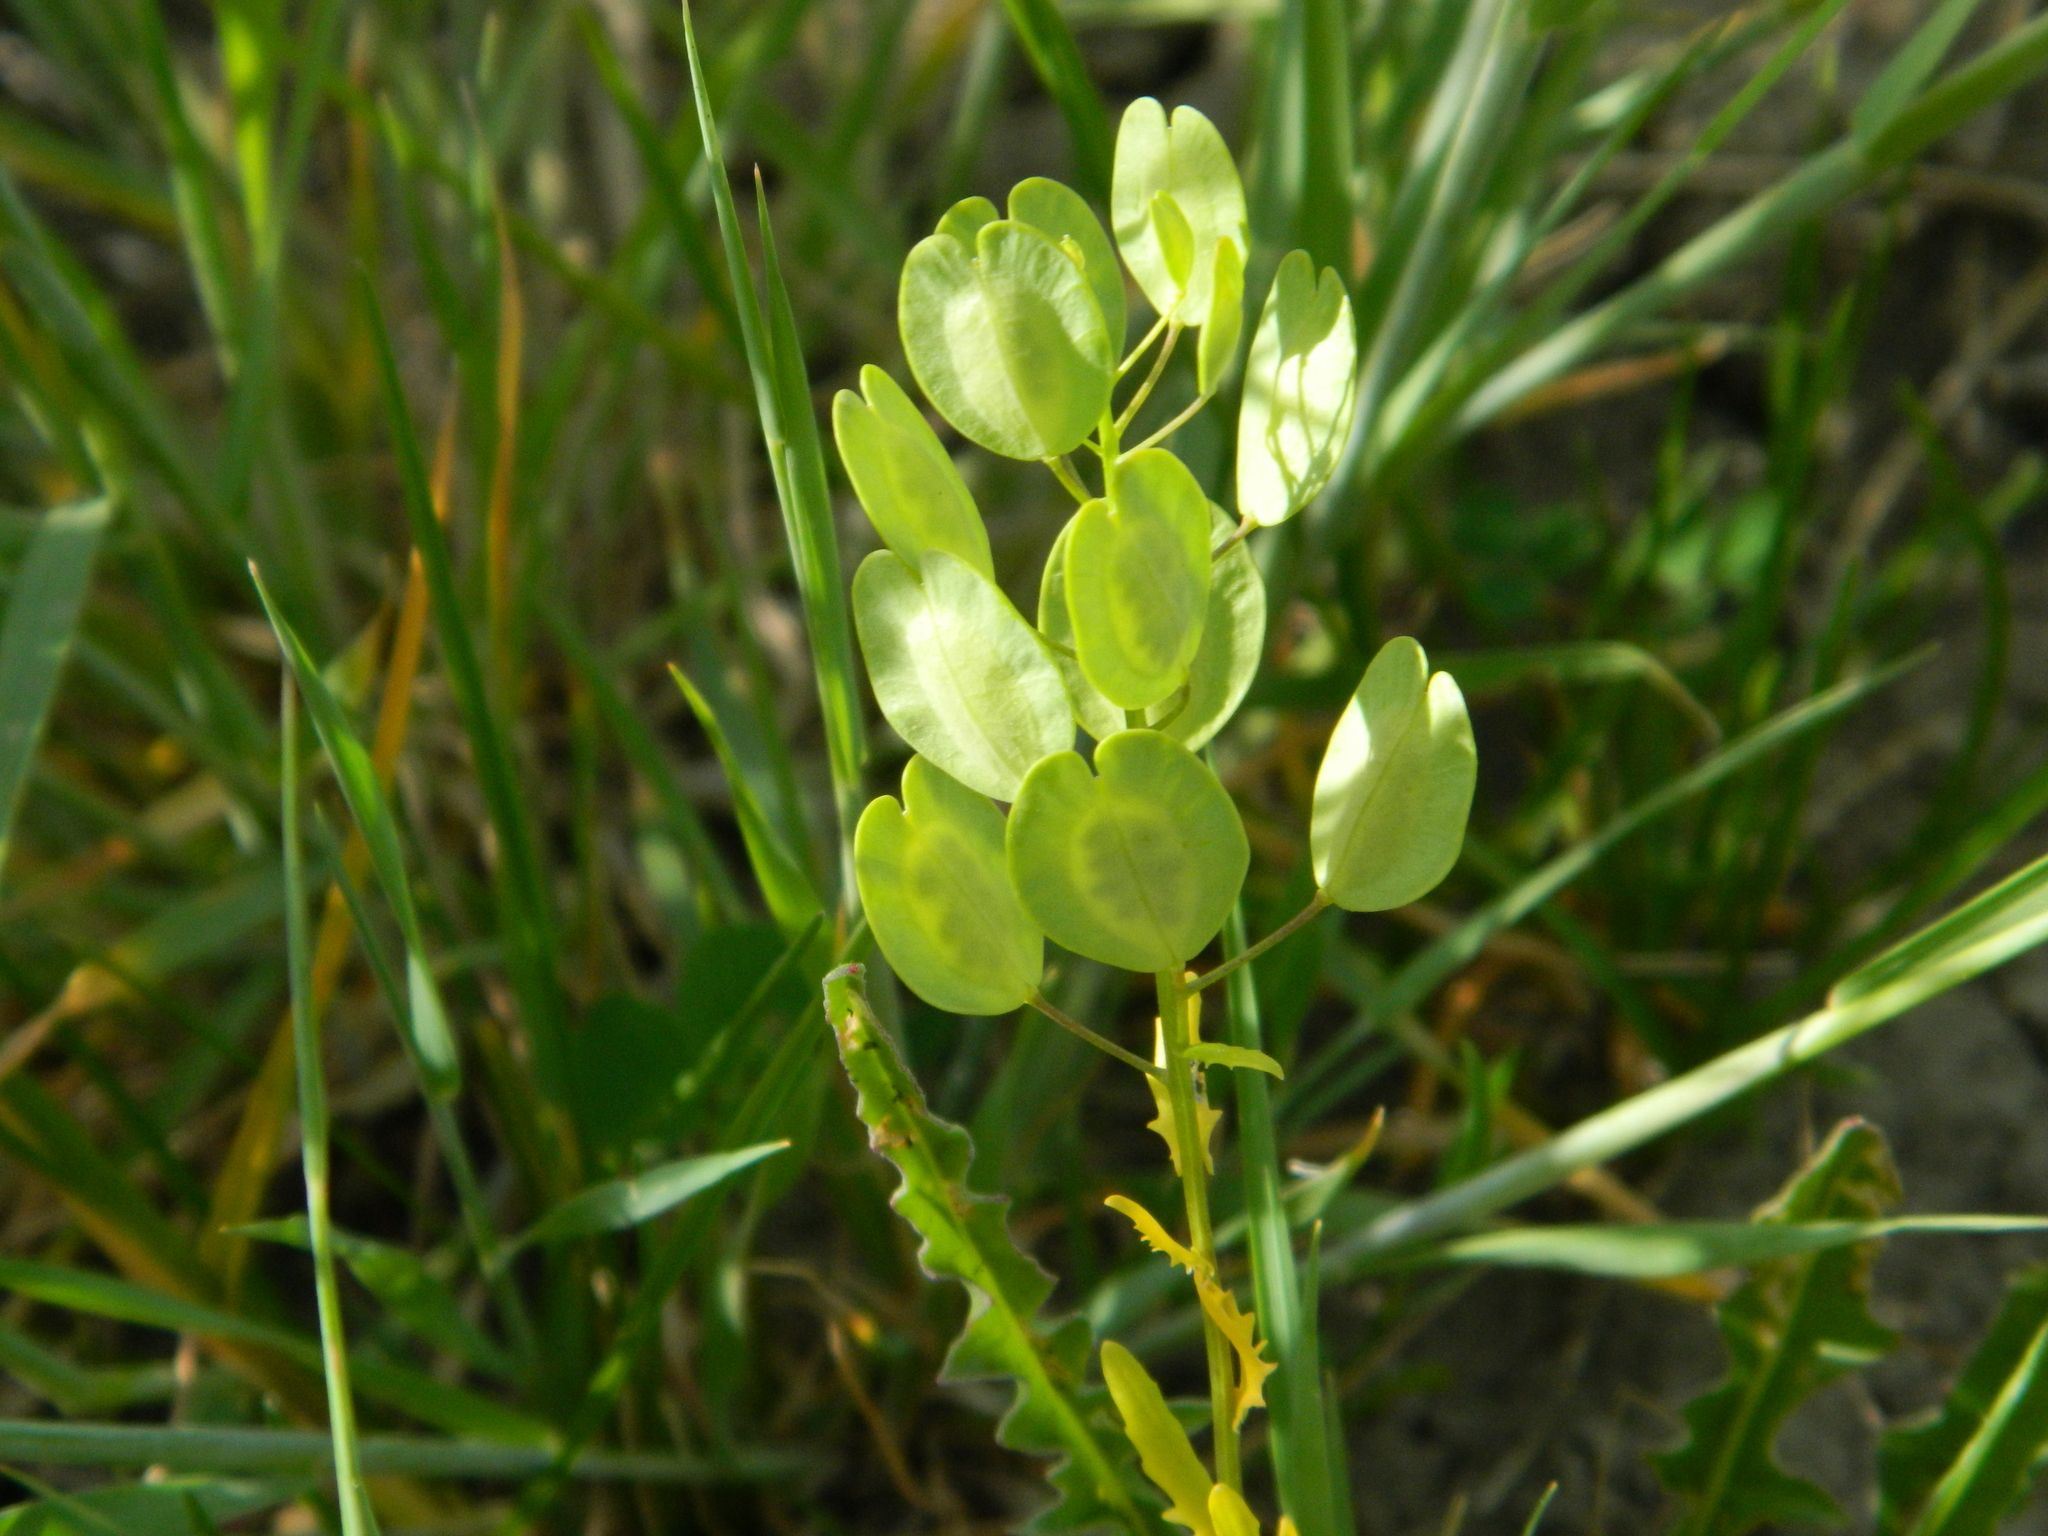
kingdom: Plantae
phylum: Tracheophyta
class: Magnoliopsida
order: Brassicales
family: Brassicaceae
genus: Thlaspi
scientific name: Thlaspi arvense
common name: Field pennycress
